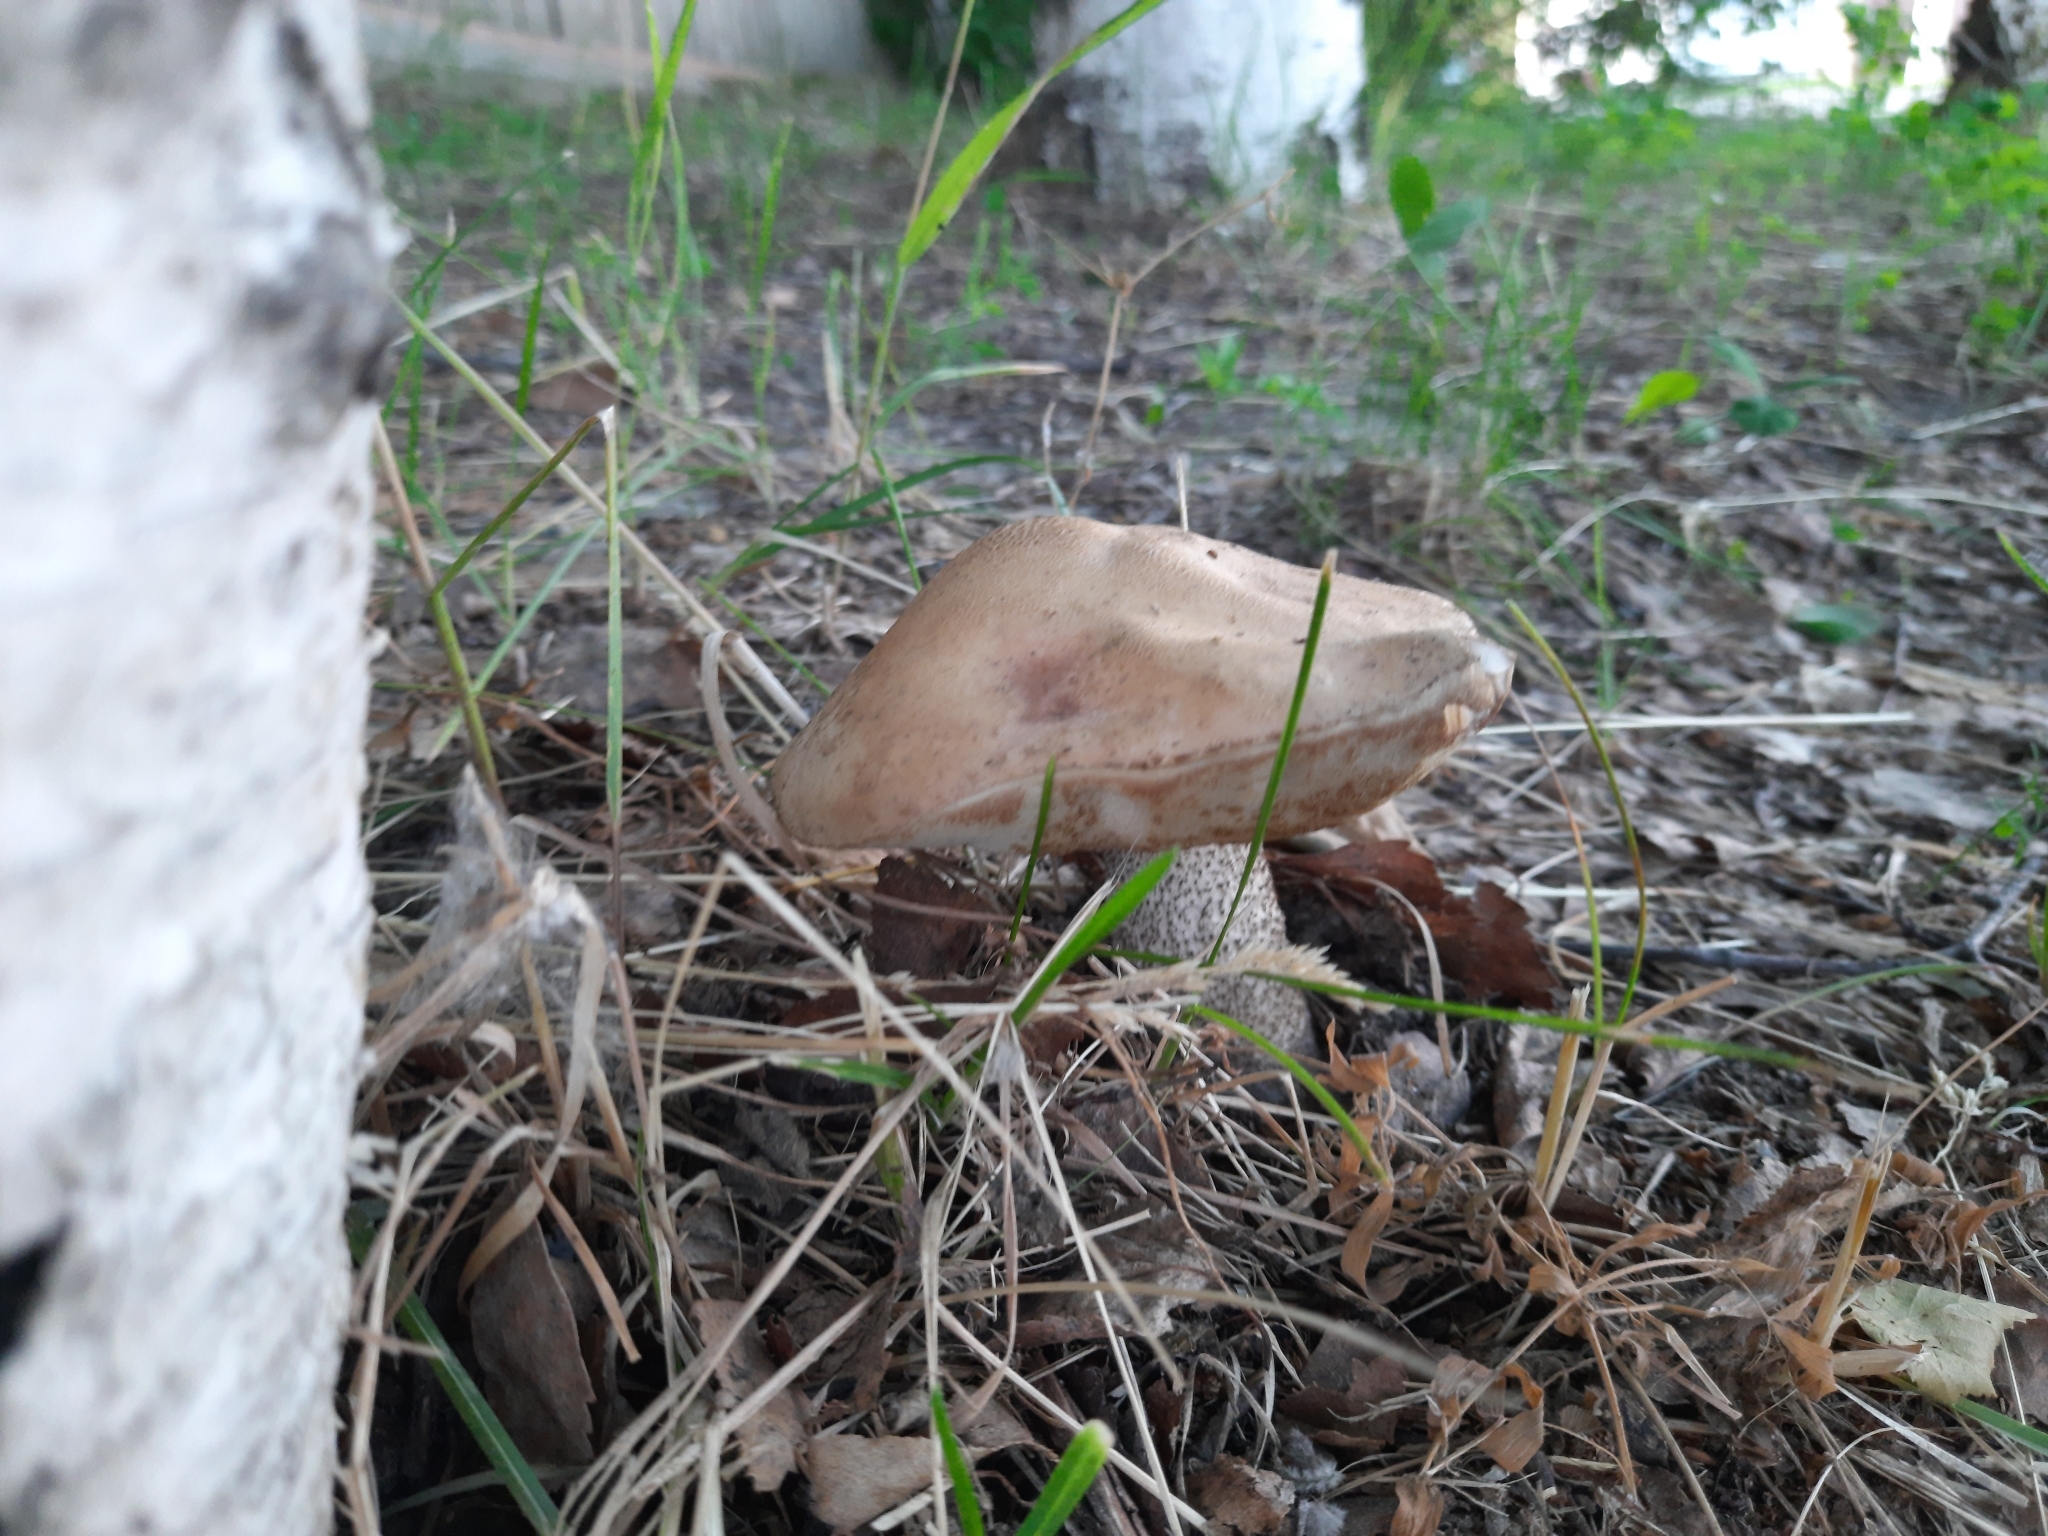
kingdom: Fungi
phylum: Basidiomycota
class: Agaricomycetes
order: Boletales
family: Boletaceae
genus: Leccinum
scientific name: Leccinum scabrum
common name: Blushing bolete
